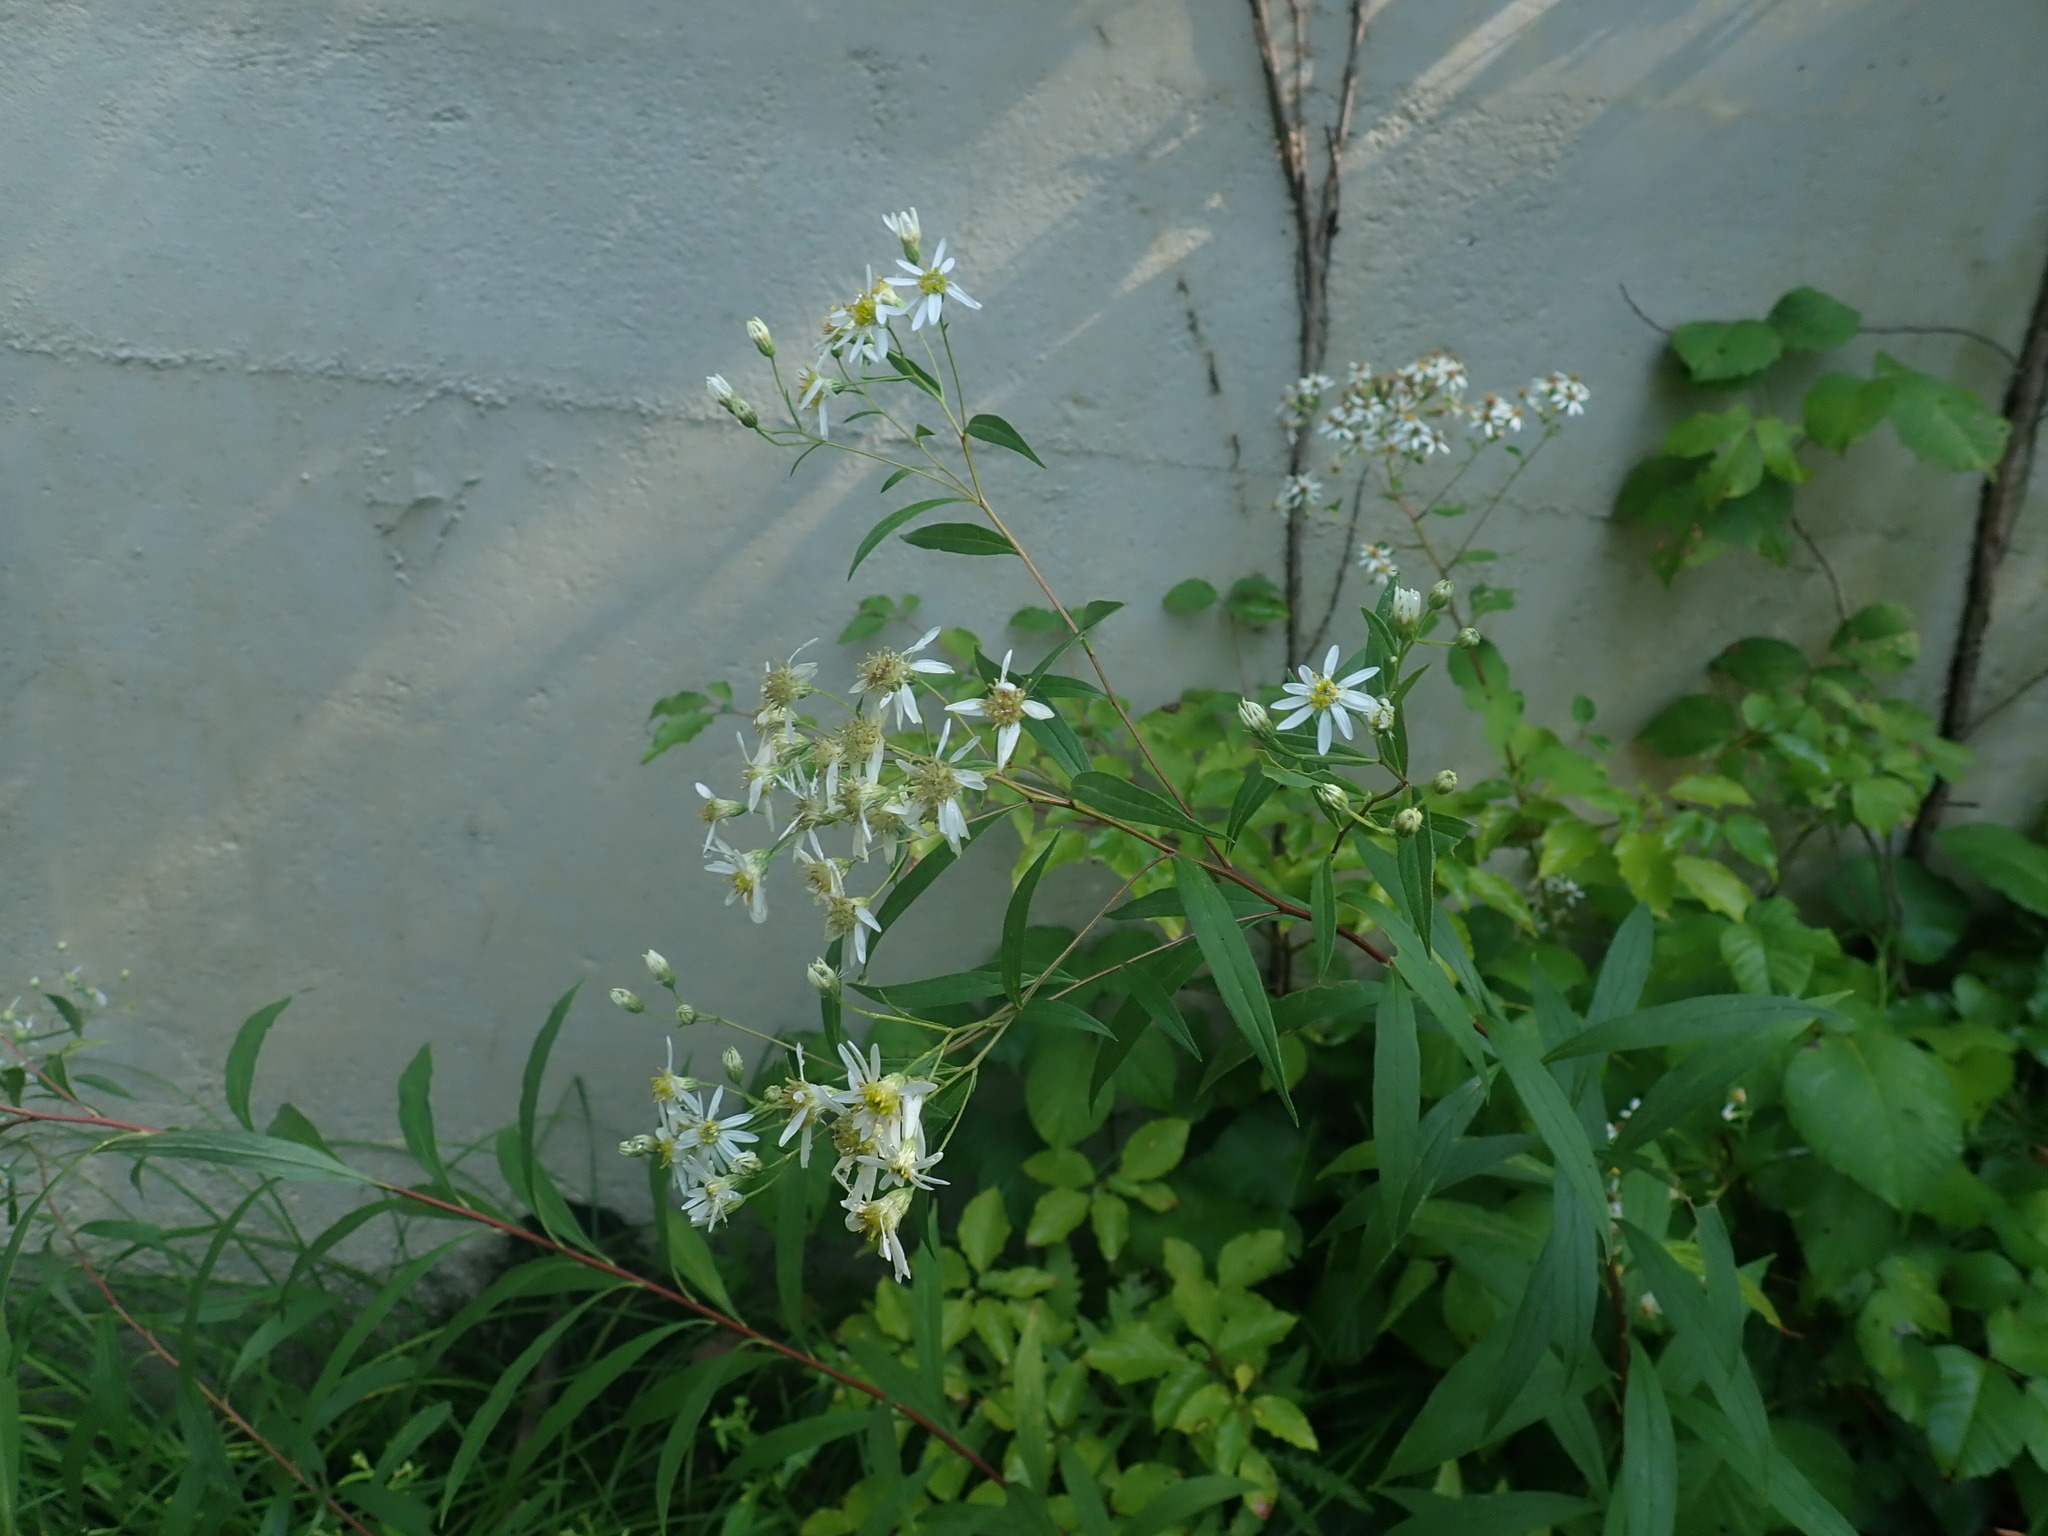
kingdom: Plantae
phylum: Tracheophyta
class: Magnoliopsida
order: Asterales
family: Asteraceae
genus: Doellingeria
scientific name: Doellingeria umbellata
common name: Flat-top white aster
